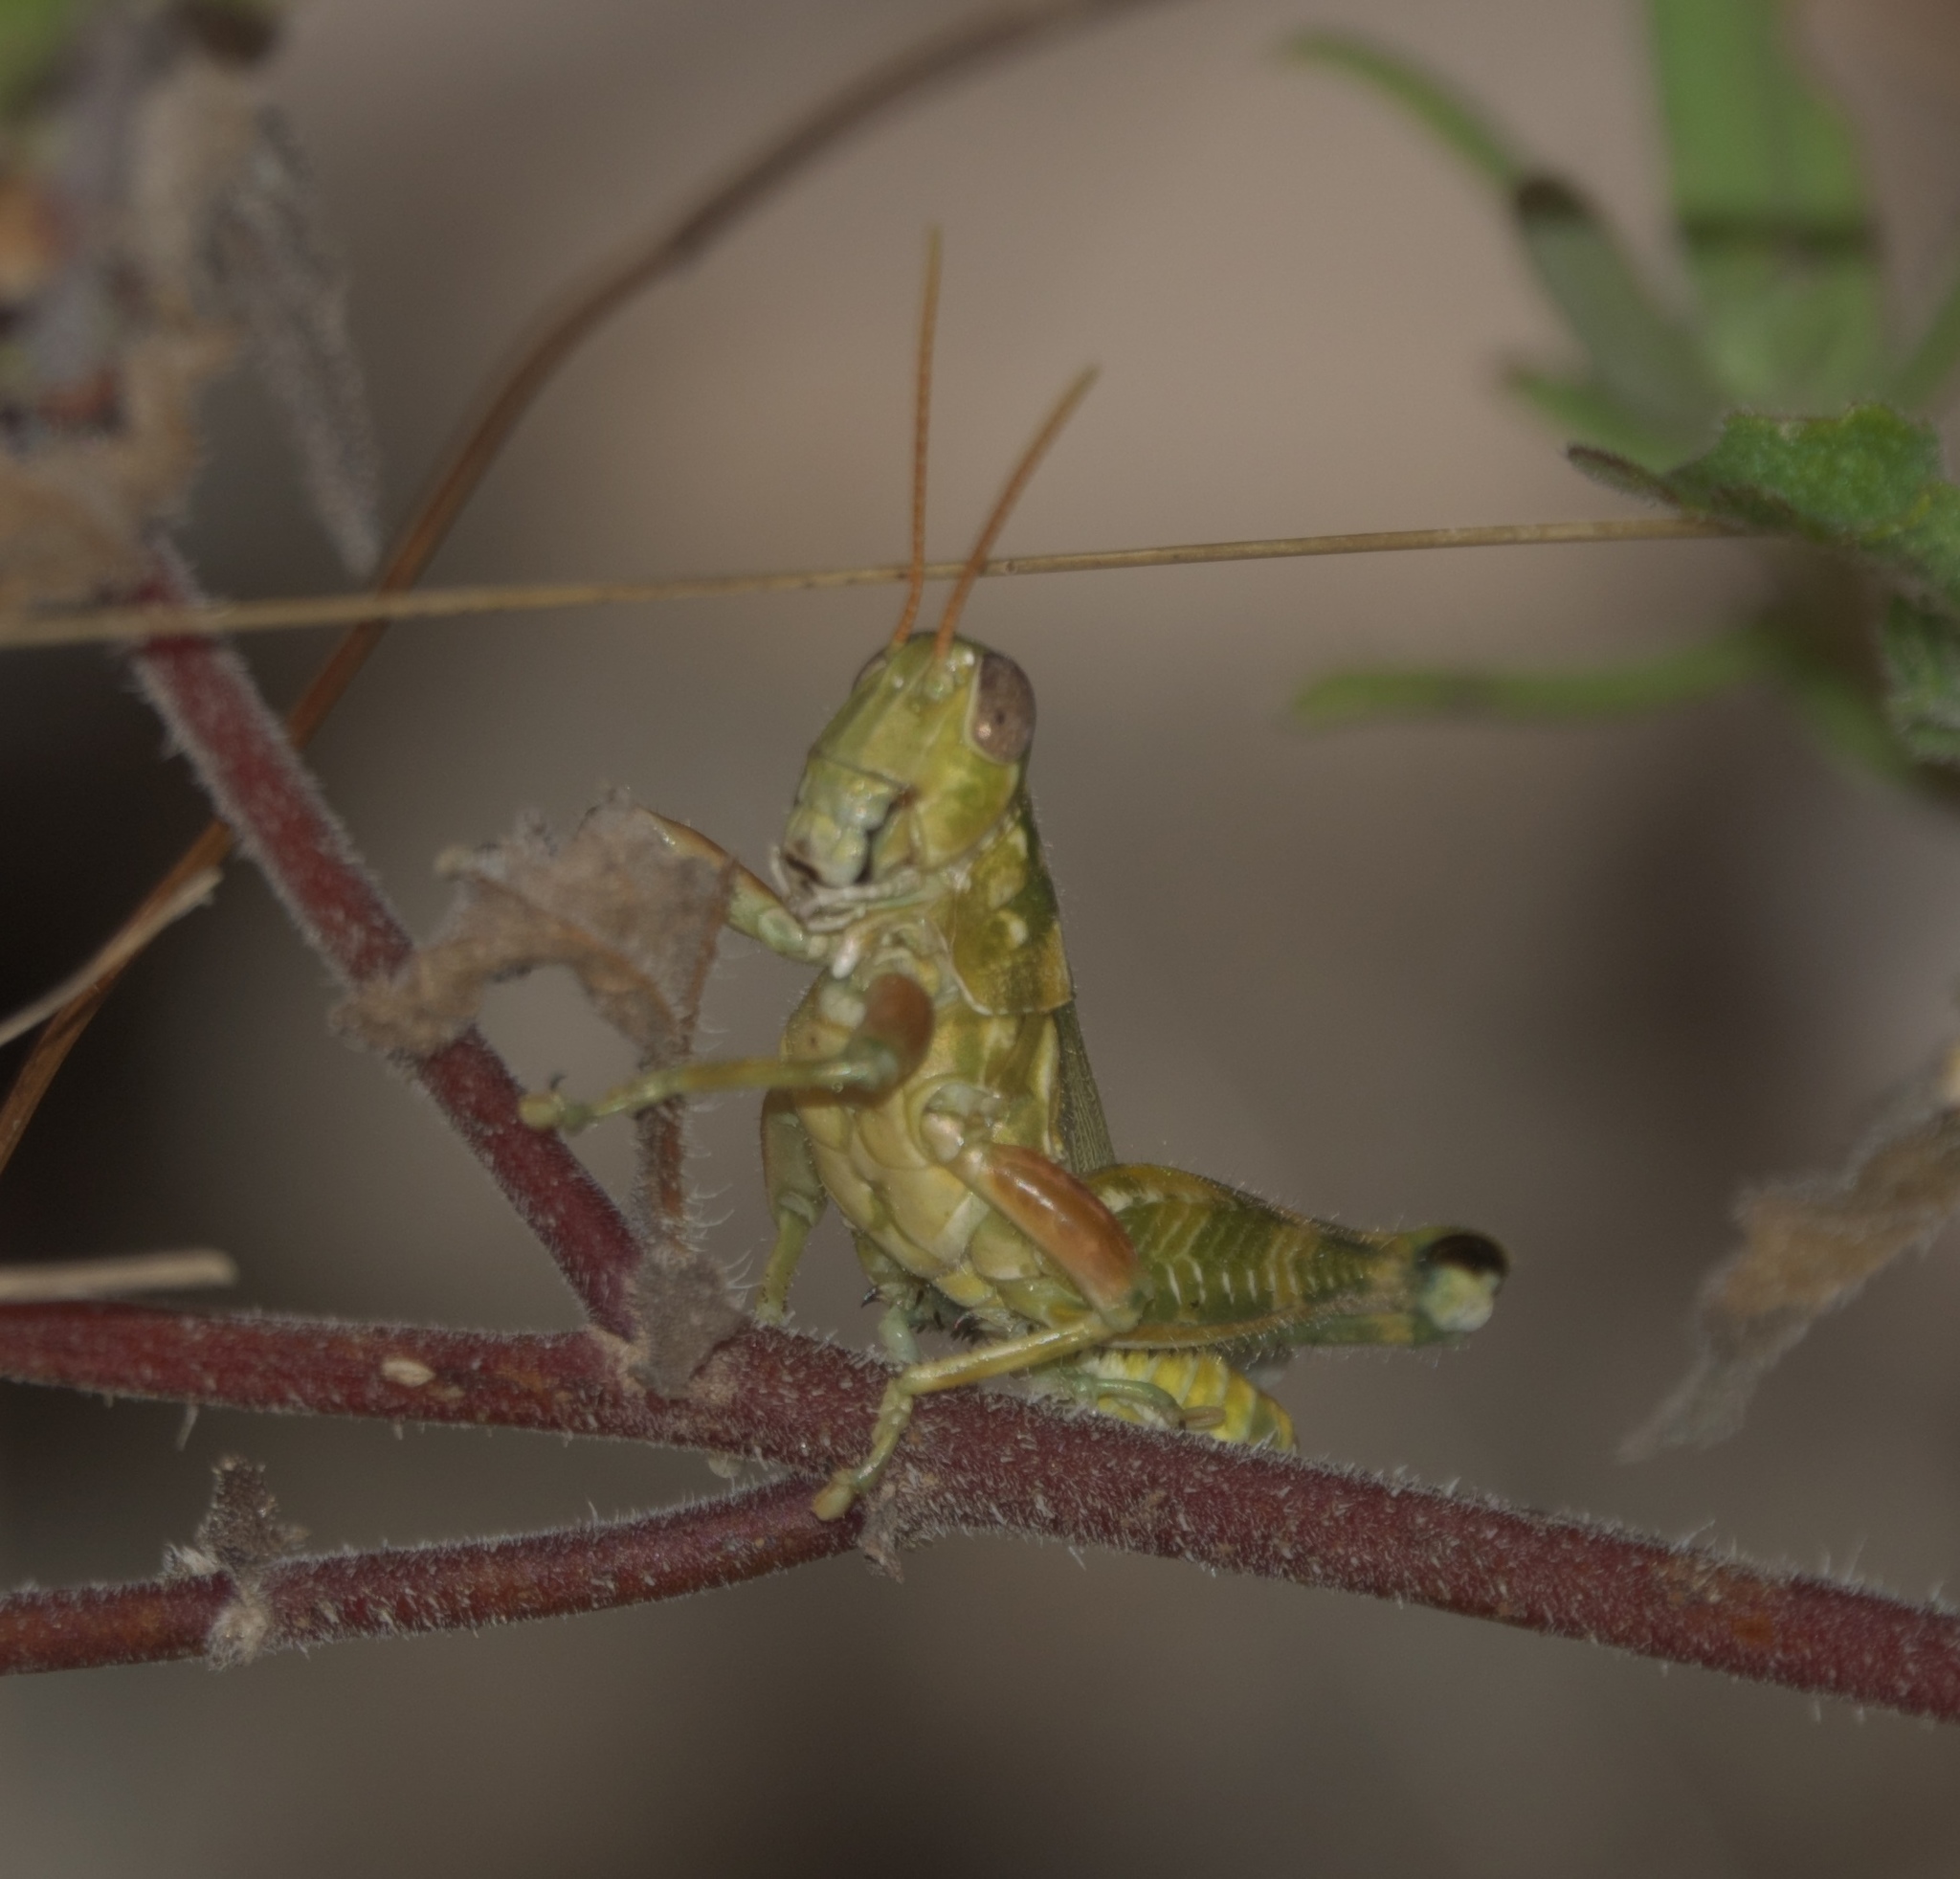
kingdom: Animalia
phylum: Arthropoda
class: Insecta
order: Orthoptera
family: Acrididae
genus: Campylacantha
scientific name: Campylacantha olivacea
